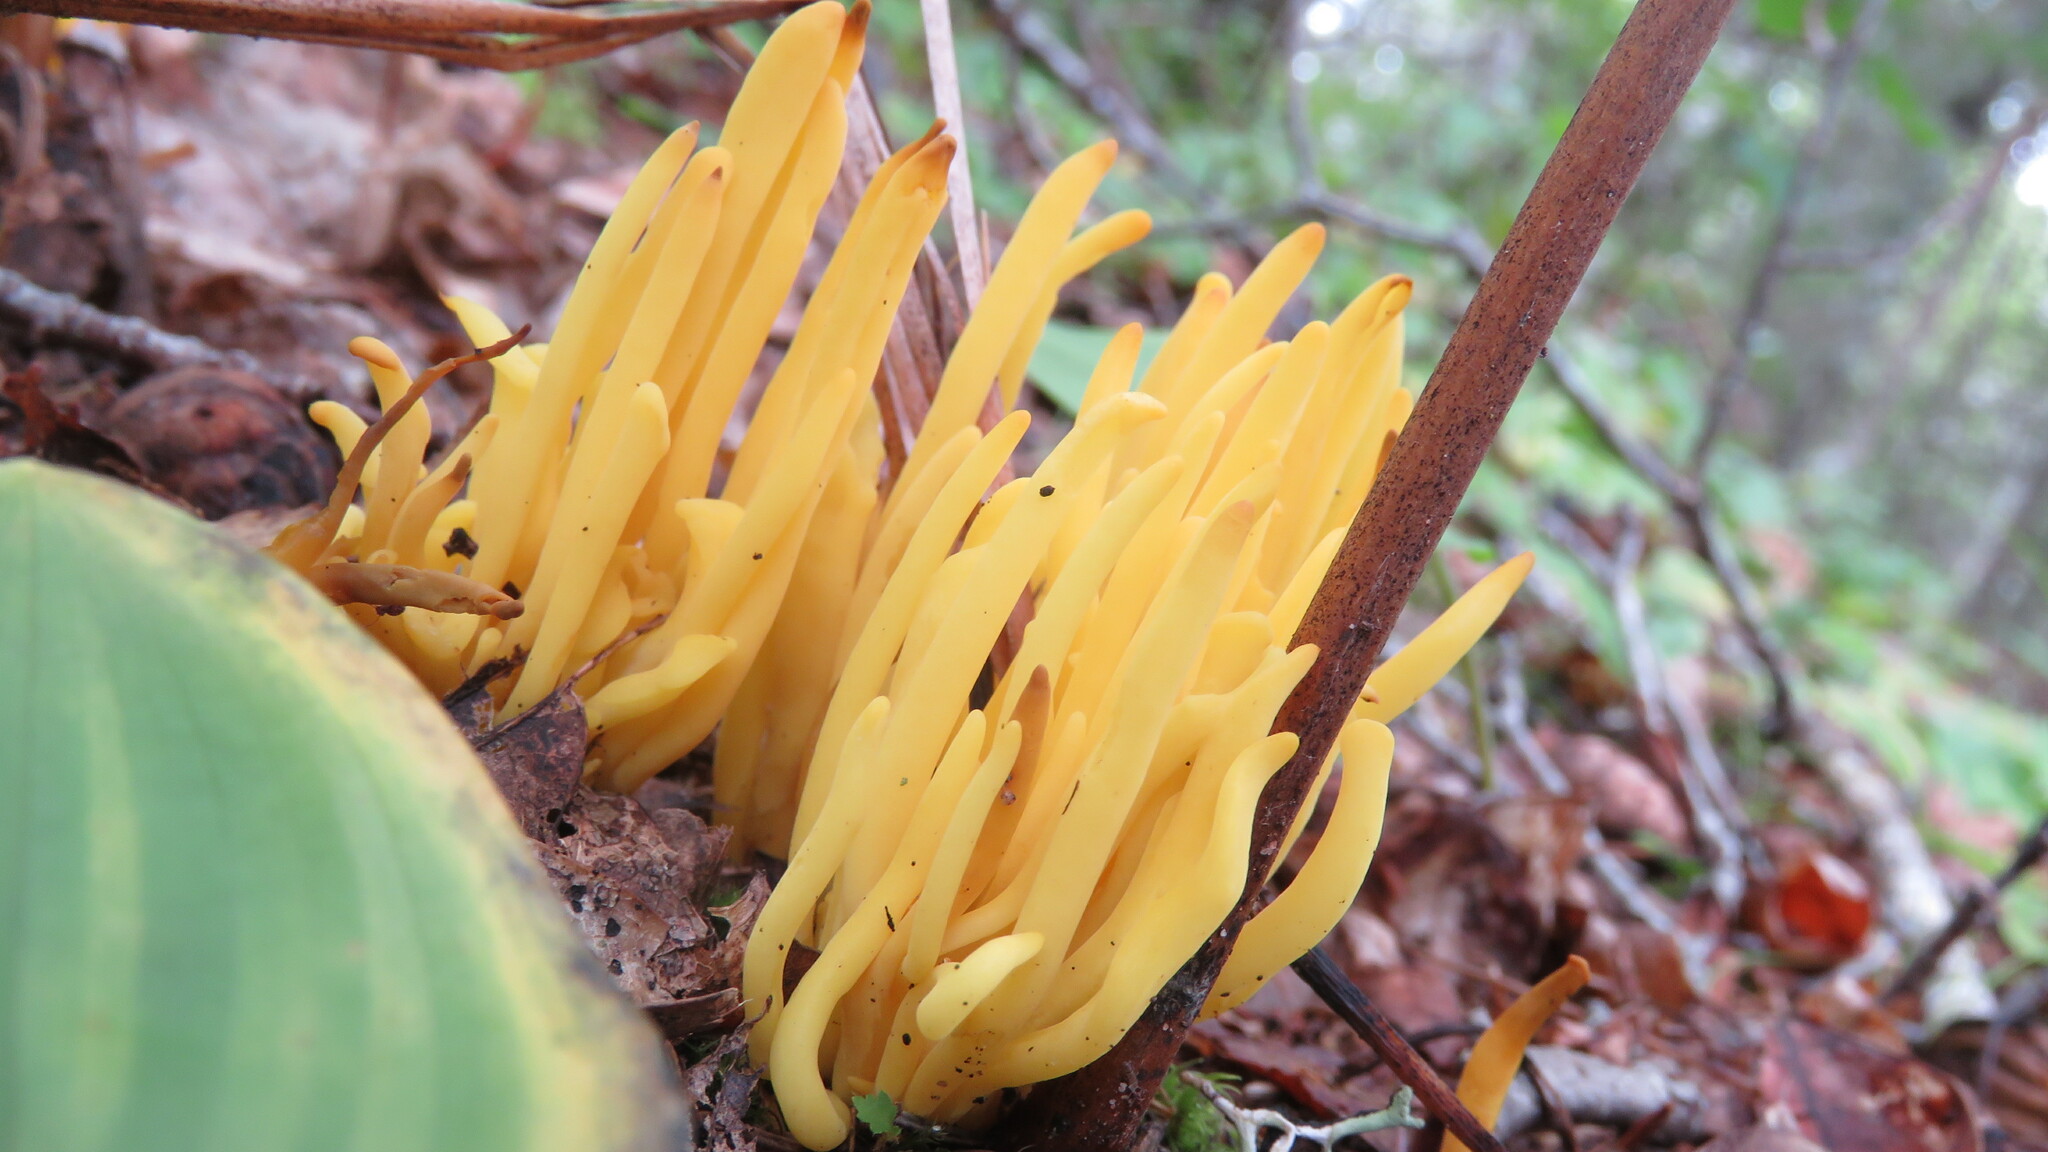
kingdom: Fungi
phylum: Basidiomycota
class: Agaricomycetes
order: Agaricales
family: Clavariaceae
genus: Clavulinopsis
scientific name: Clavulinopsis fusiformis
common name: Golden spindles
